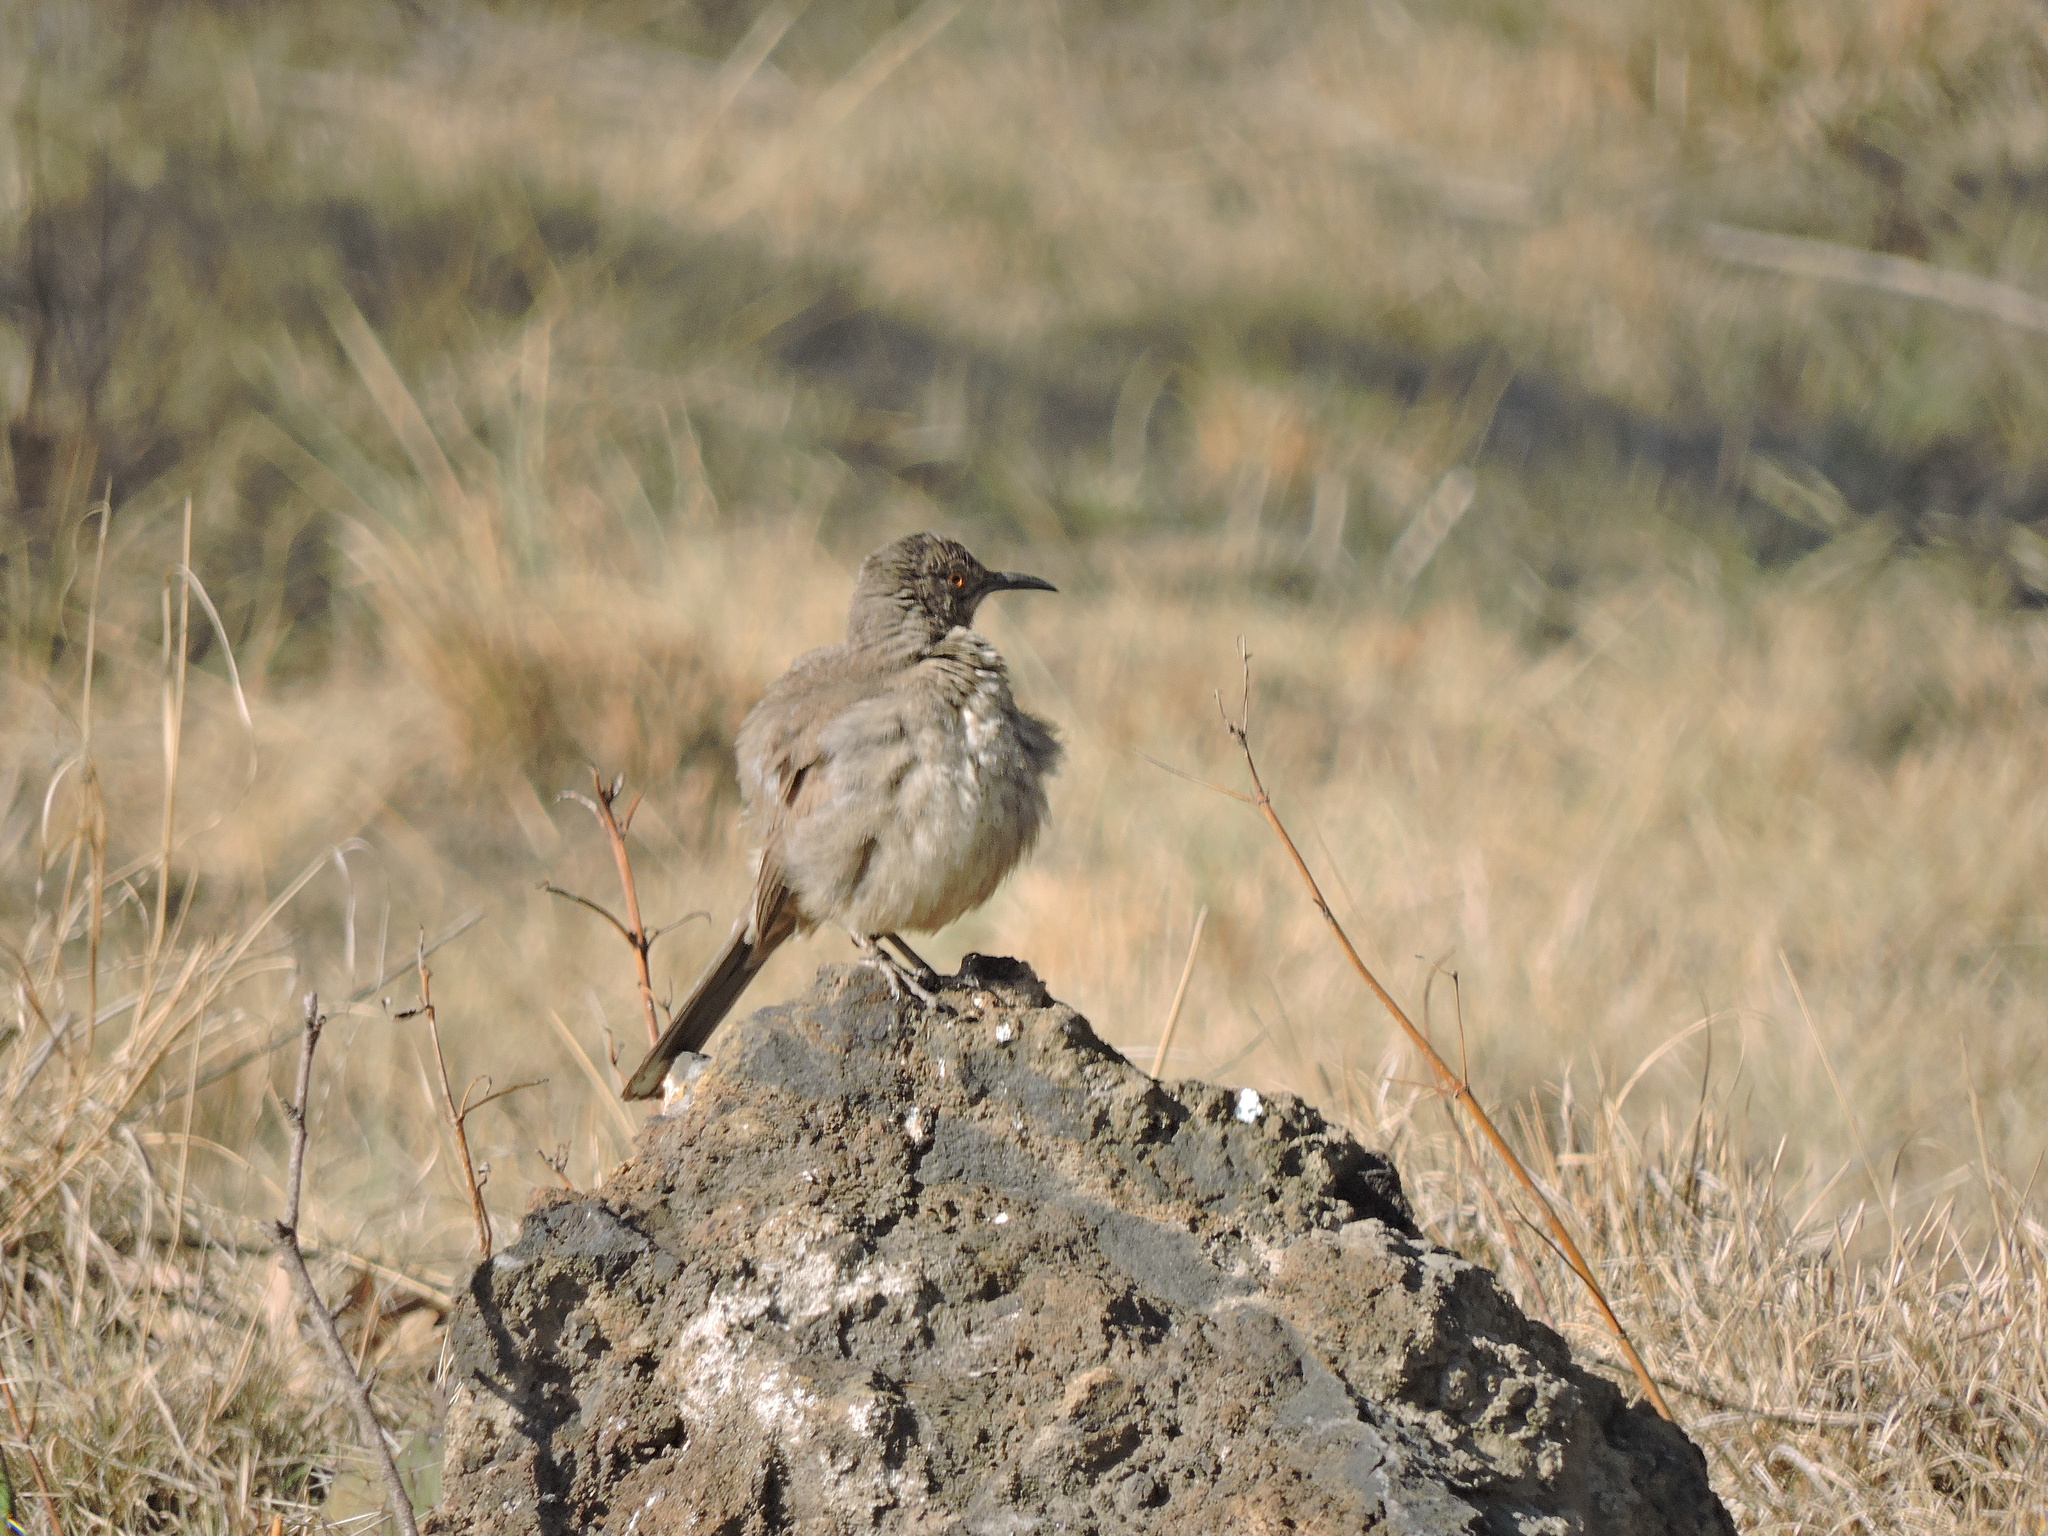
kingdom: Animalia
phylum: Chordata
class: Aves
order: Passeriformes
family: Mimidae
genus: Toxostoma
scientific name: Toxostoma curvirostre
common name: Curve-billed thrasher
